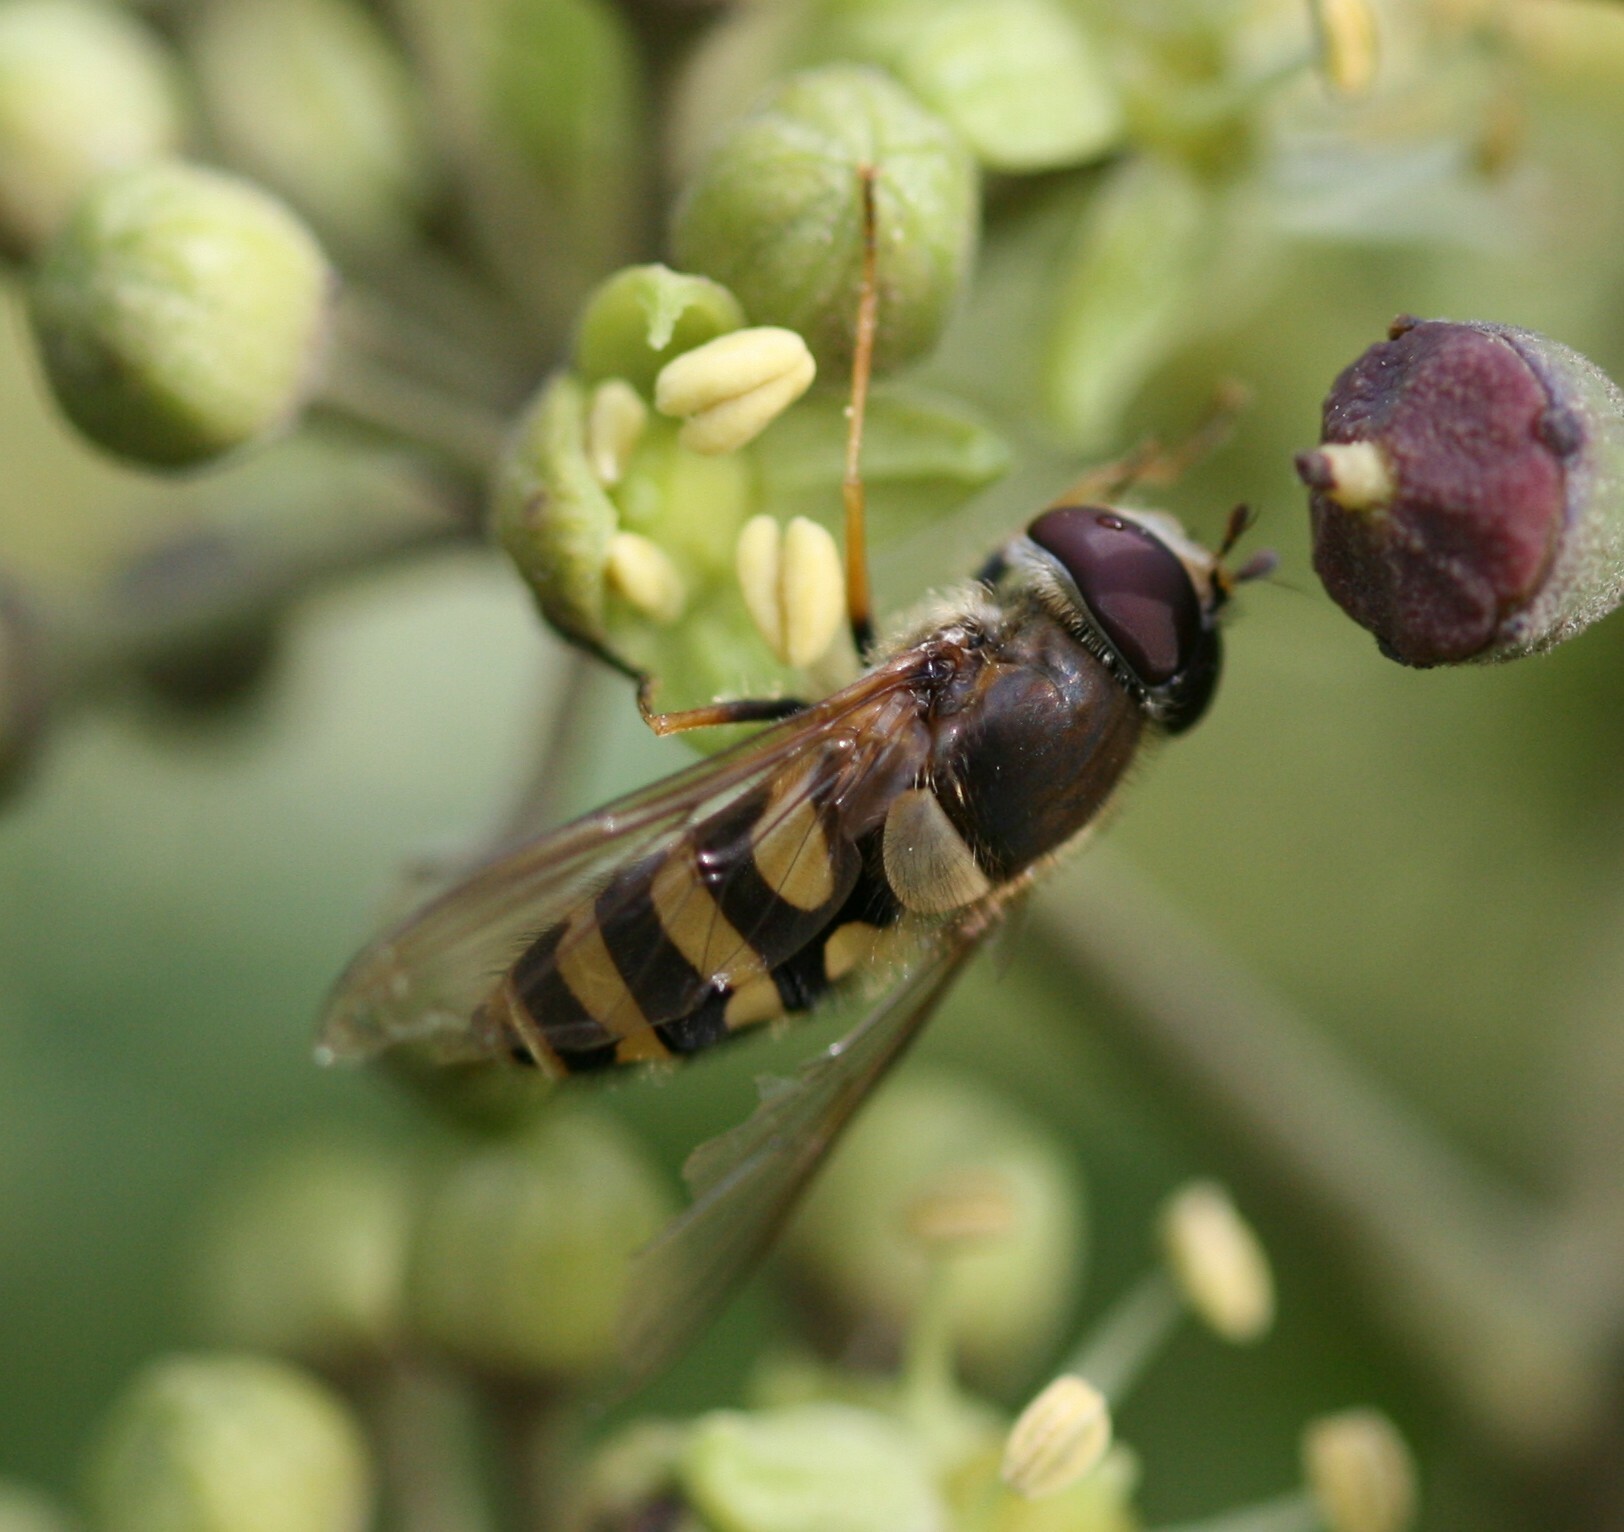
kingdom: Animalia
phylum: Arthropoda
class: Insecta
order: Diptera
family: Syrphidae
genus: Syrphus
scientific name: Syrphus
